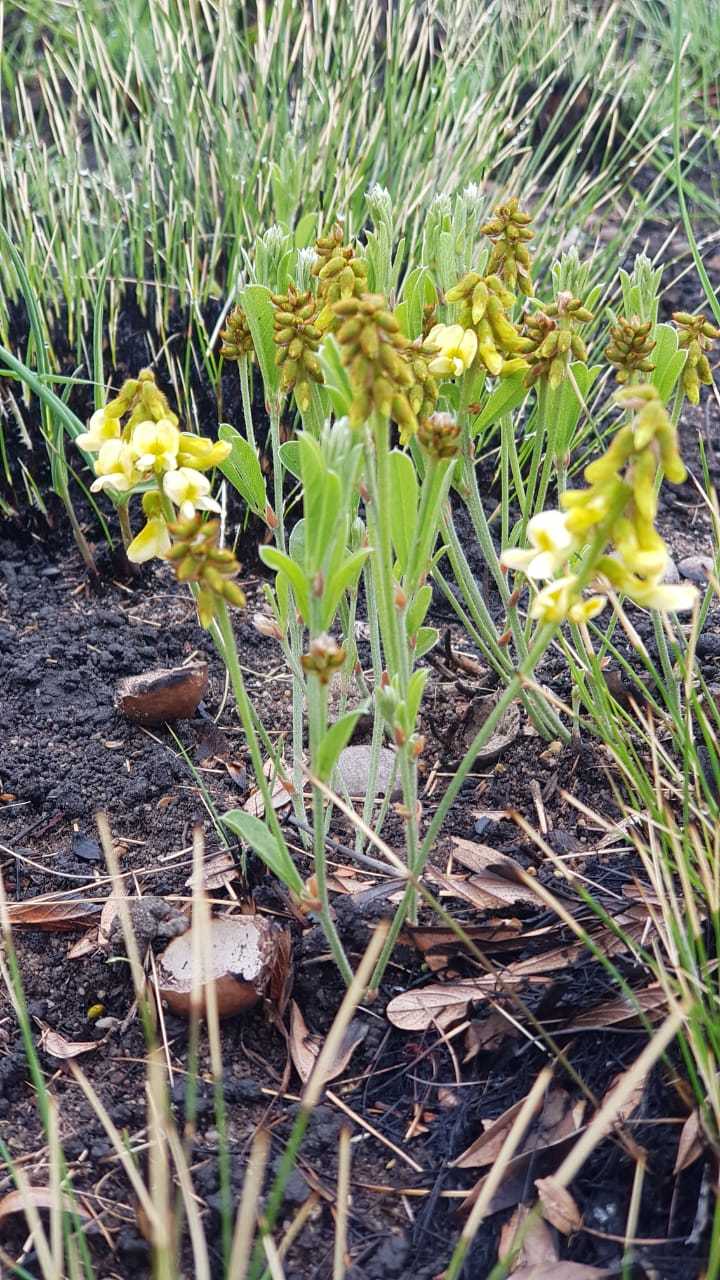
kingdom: Plantae
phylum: Tracheophyta
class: Magnoliopsida
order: Fabales
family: Fabaceae
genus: Eriosema
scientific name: Eriosema kraussianum
